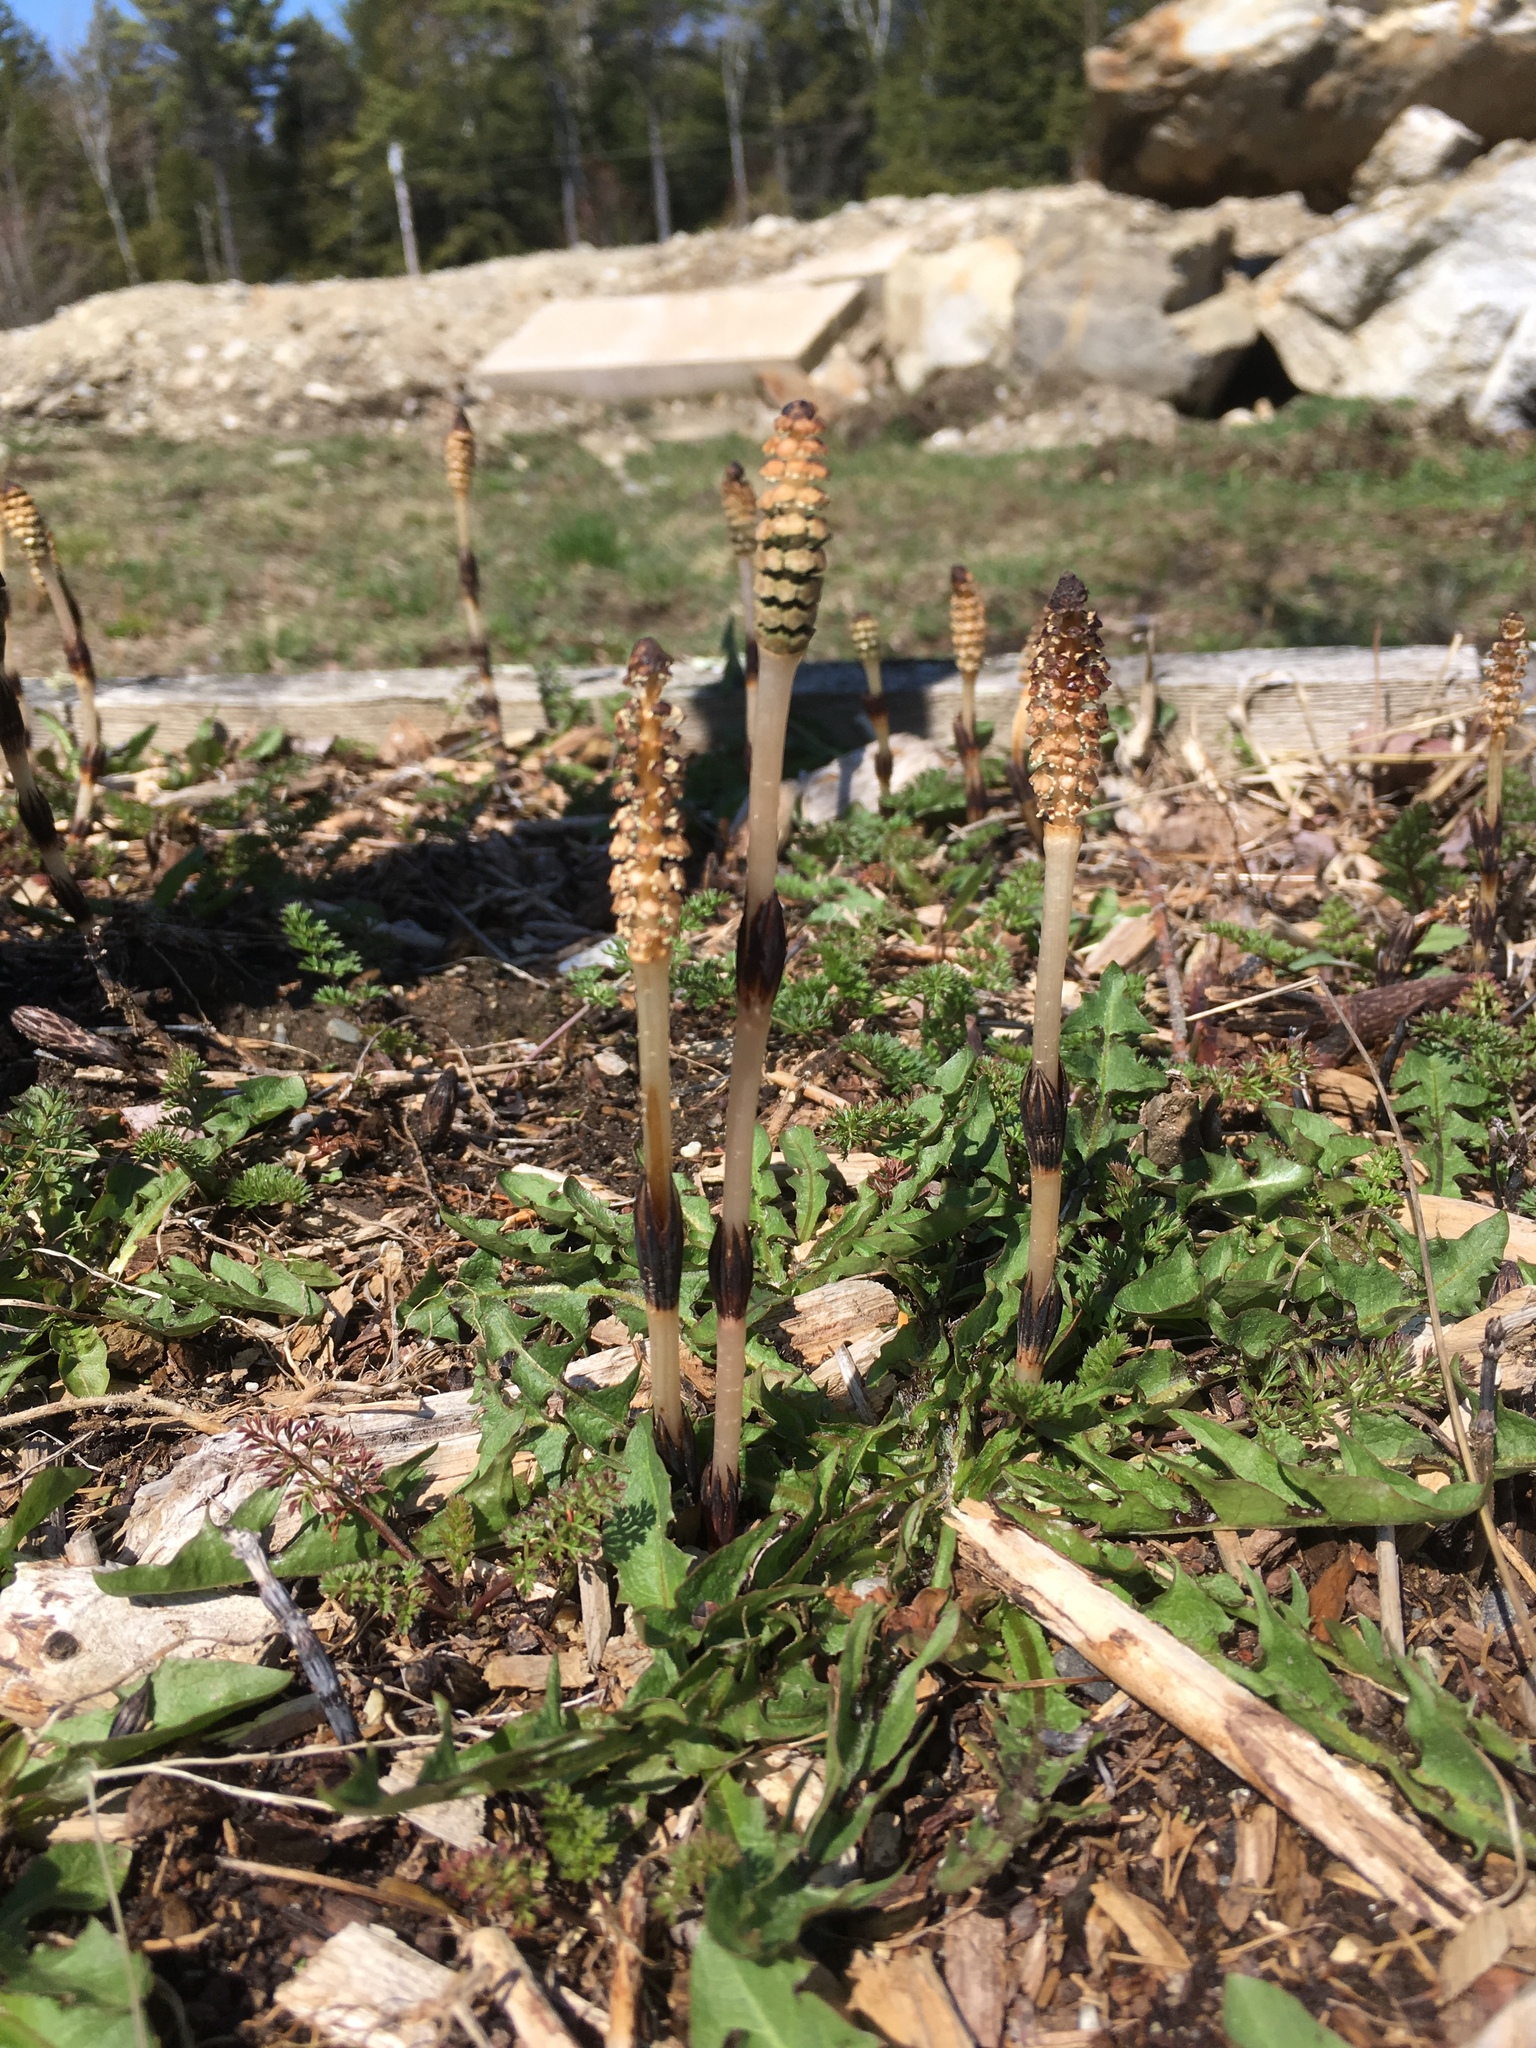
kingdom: Plantae
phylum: Tracheophyta
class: Polypodiopsida
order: Equisetales
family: Equisetaceae
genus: Equisetum
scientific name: Equisetum arvense
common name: Field horsetail
